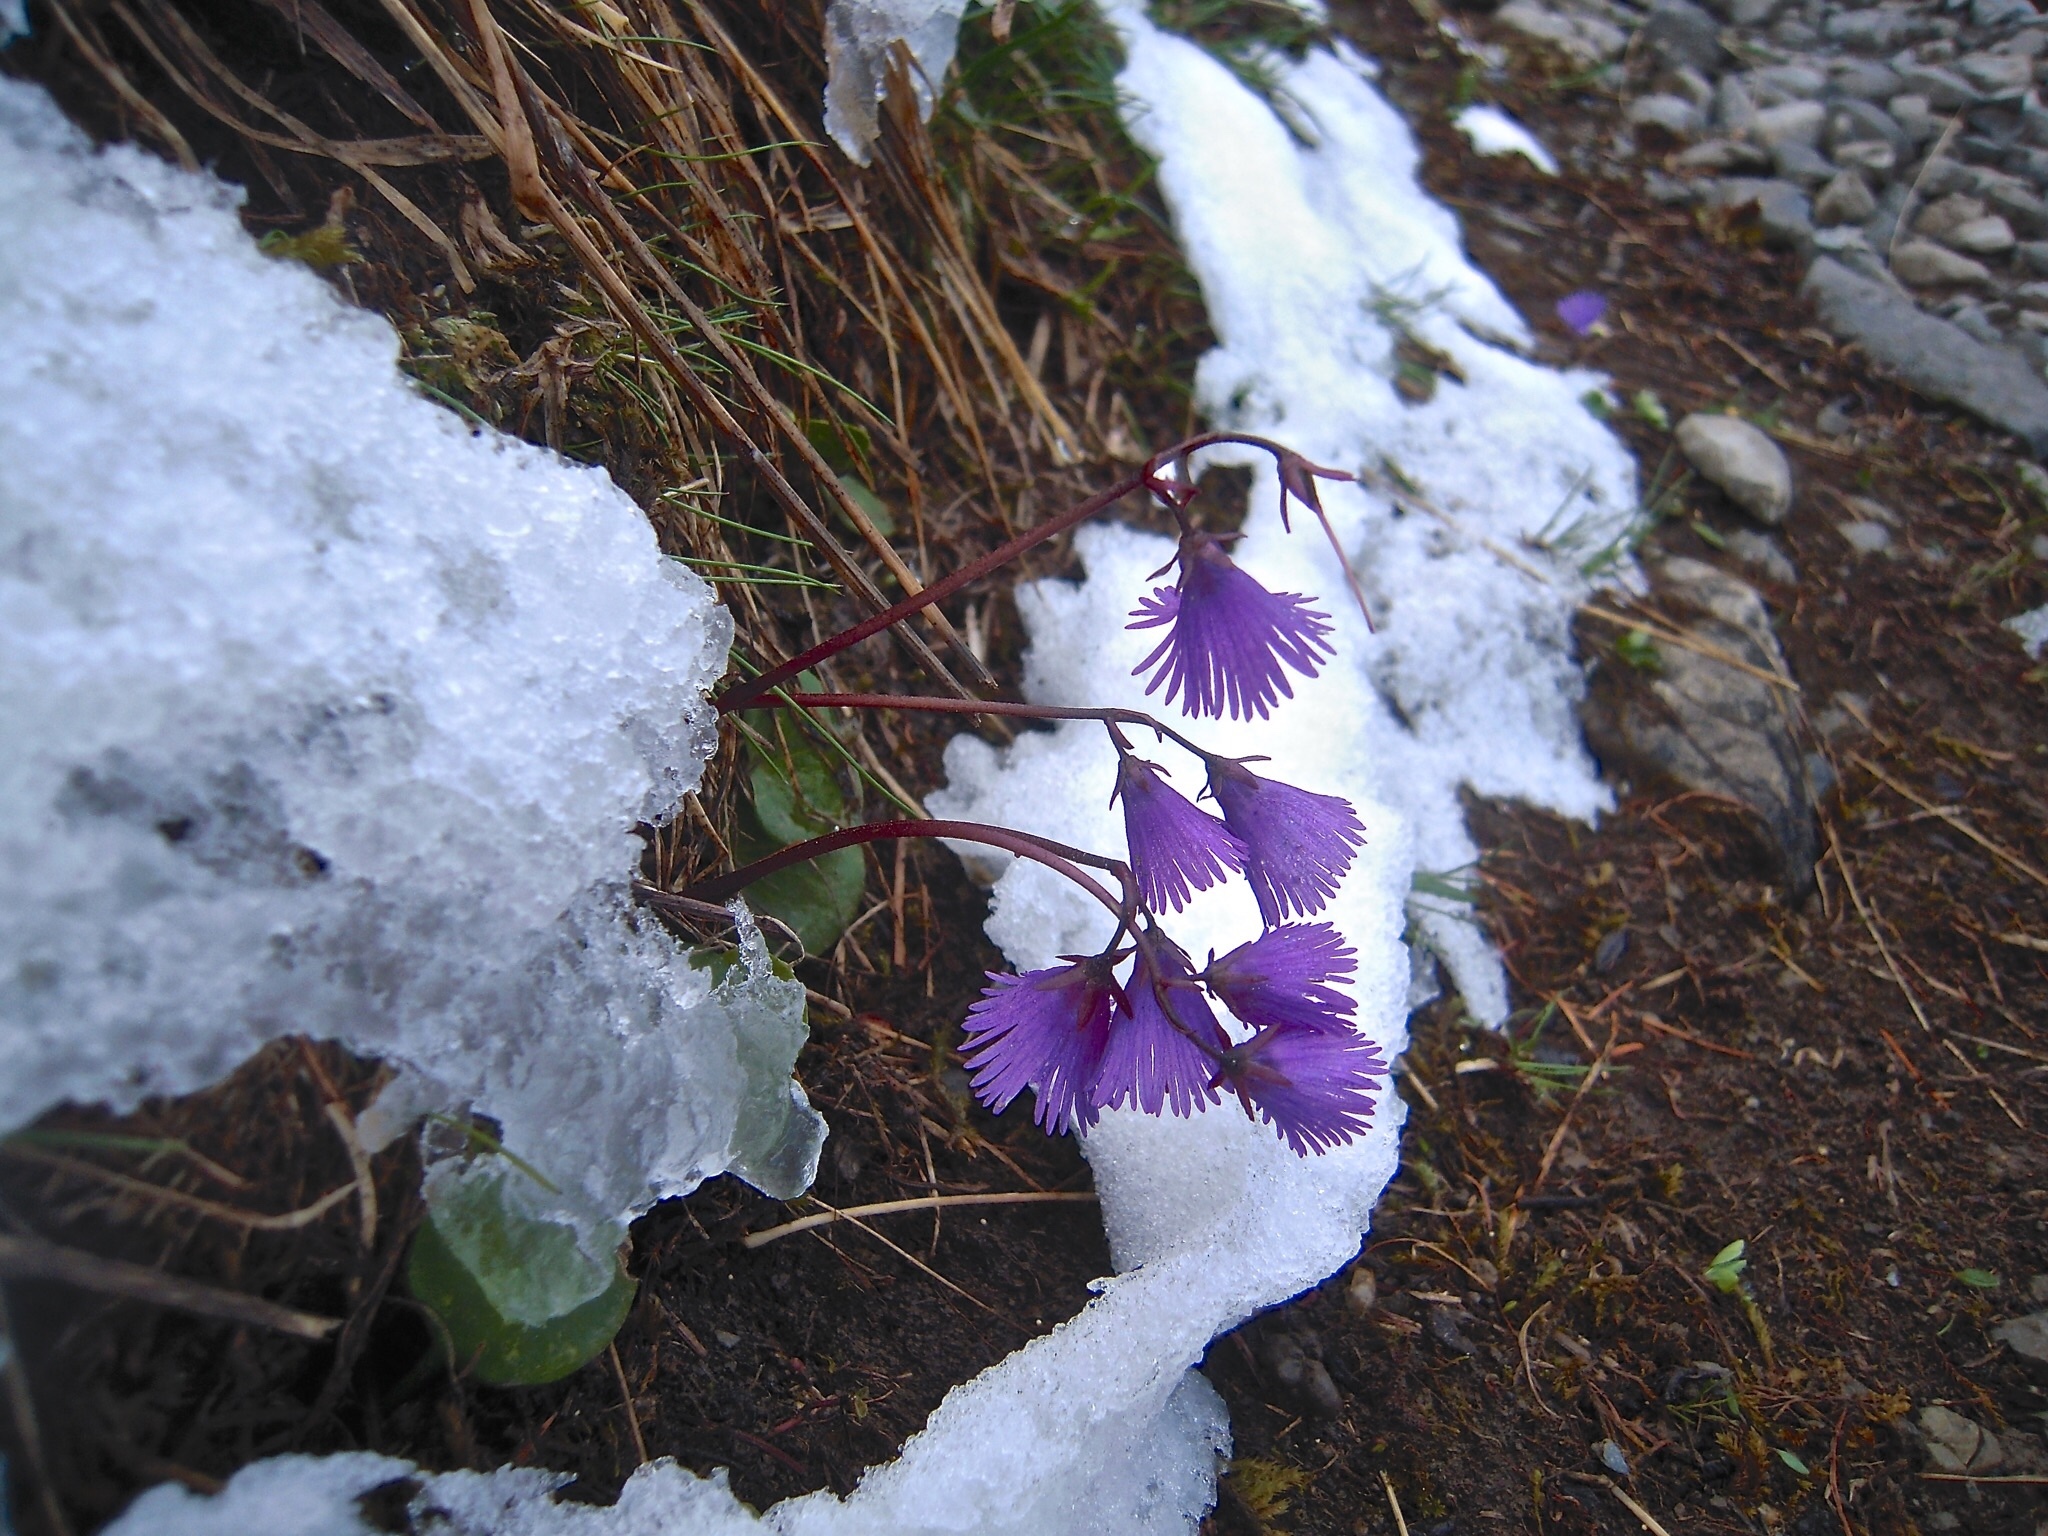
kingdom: Plantae
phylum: Tracheophyta
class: Magnoliopsida
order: Ericales
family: Primulaceae
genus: Soldanella
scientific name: Soldanella alpina
